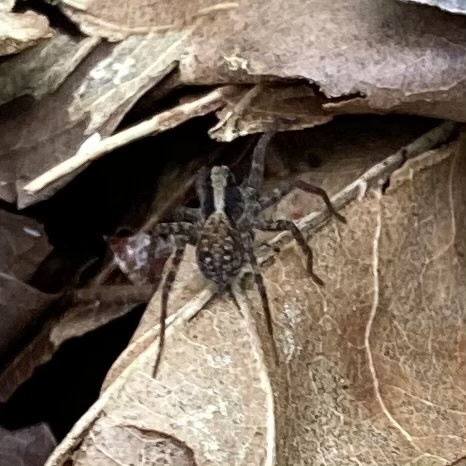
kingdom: Animalia
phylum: Arthropoda
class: Arachnida
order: Araneae
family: Lycosidae
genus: Pardosa
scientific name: Pardosa
